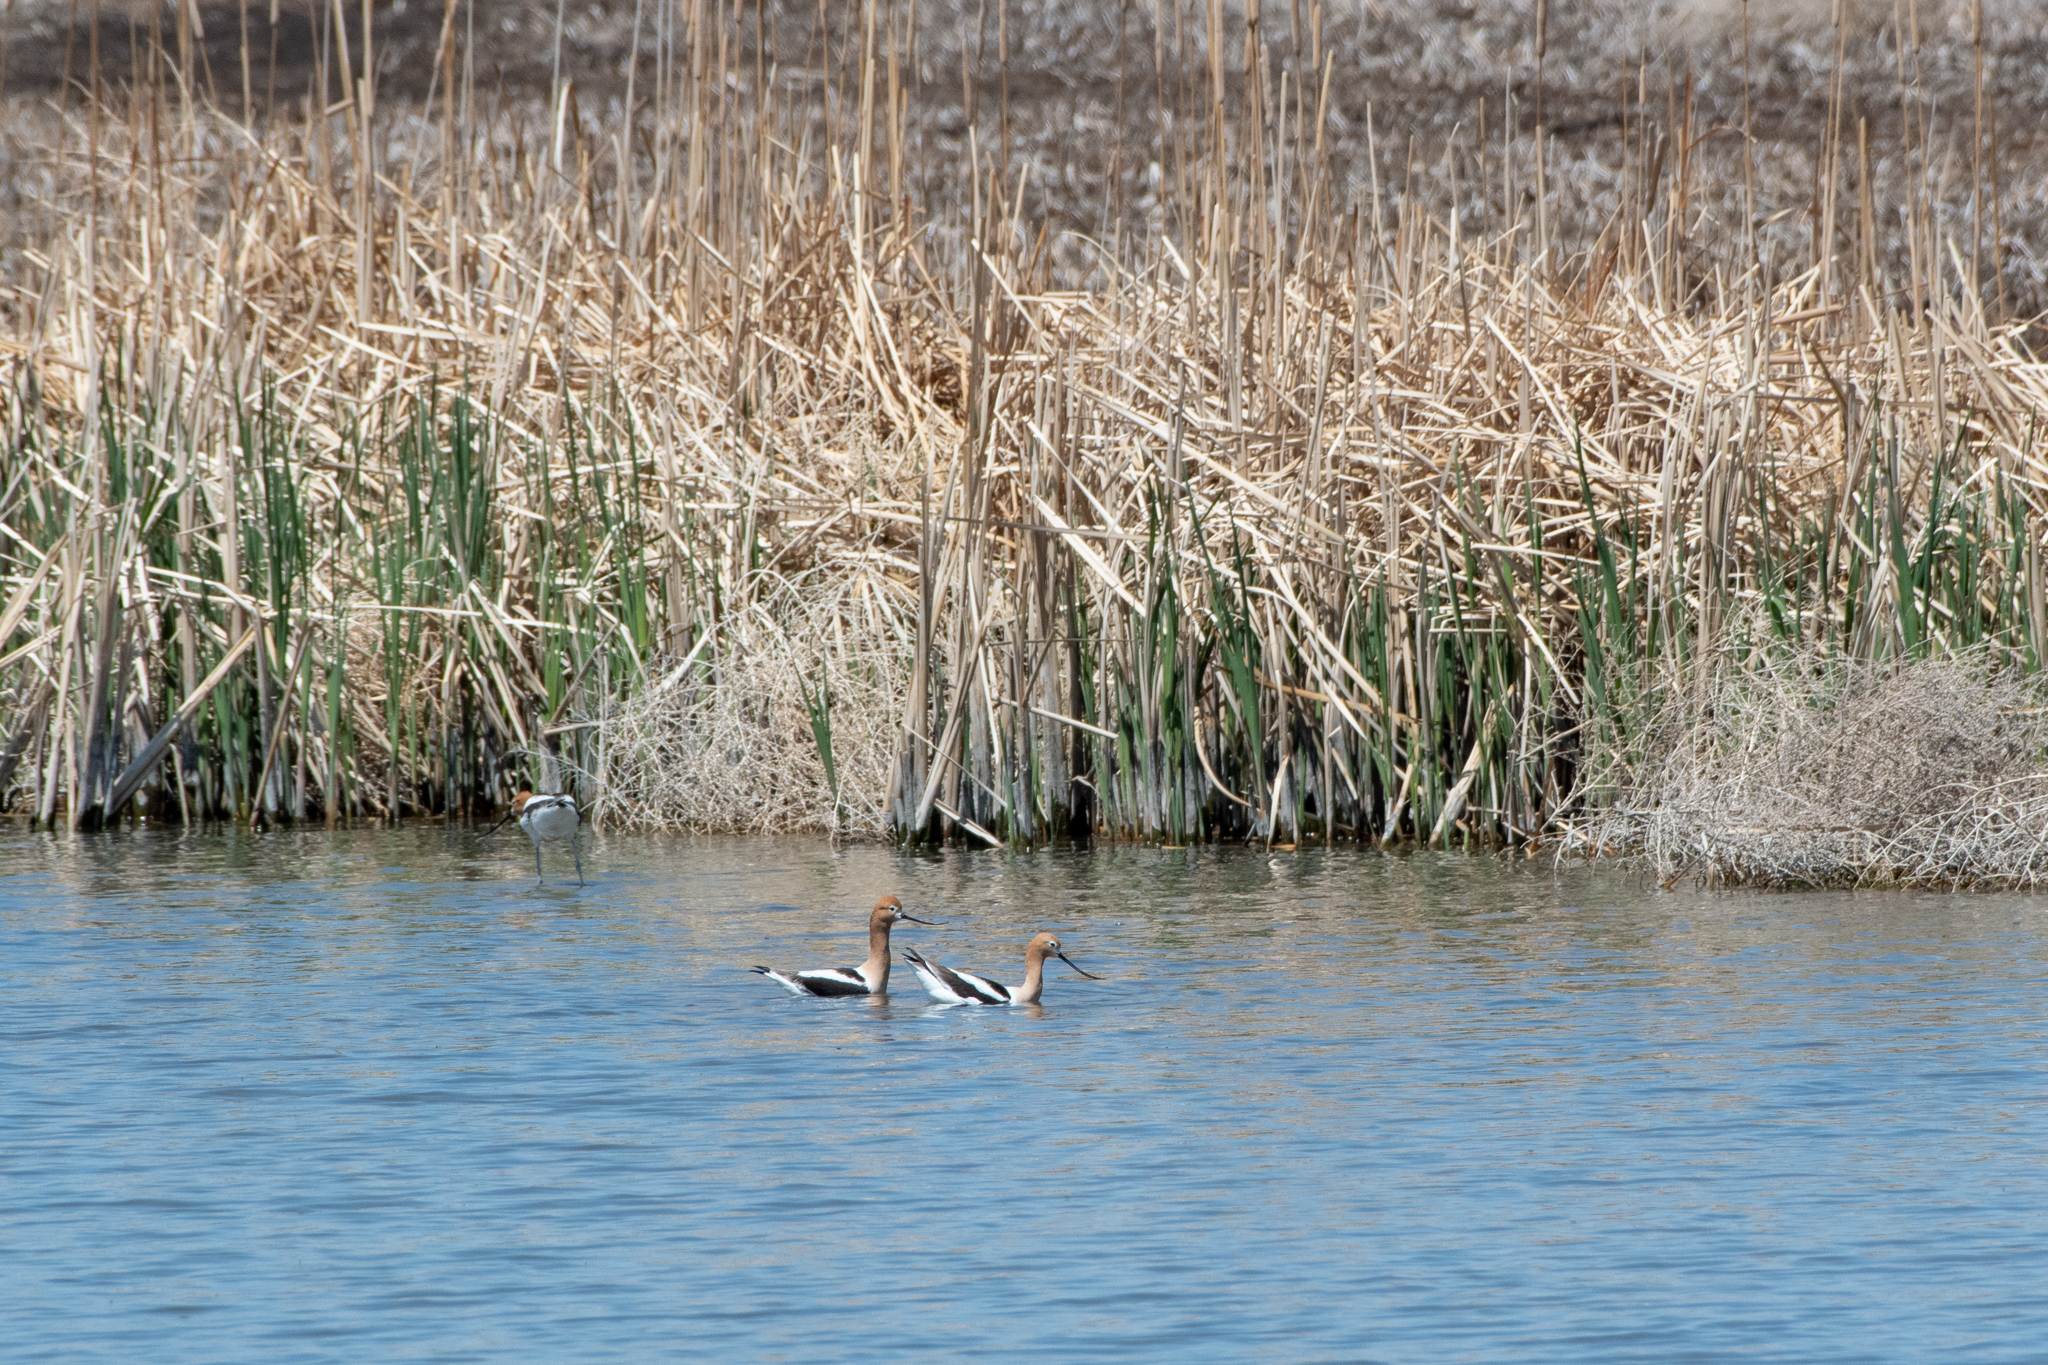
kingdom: Animalia
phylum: Chordata
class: Aves
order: Charadriiformes
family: Recurvirostridae
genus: Recurvirostra
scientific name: Recurvirostra americana
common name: American avocet
